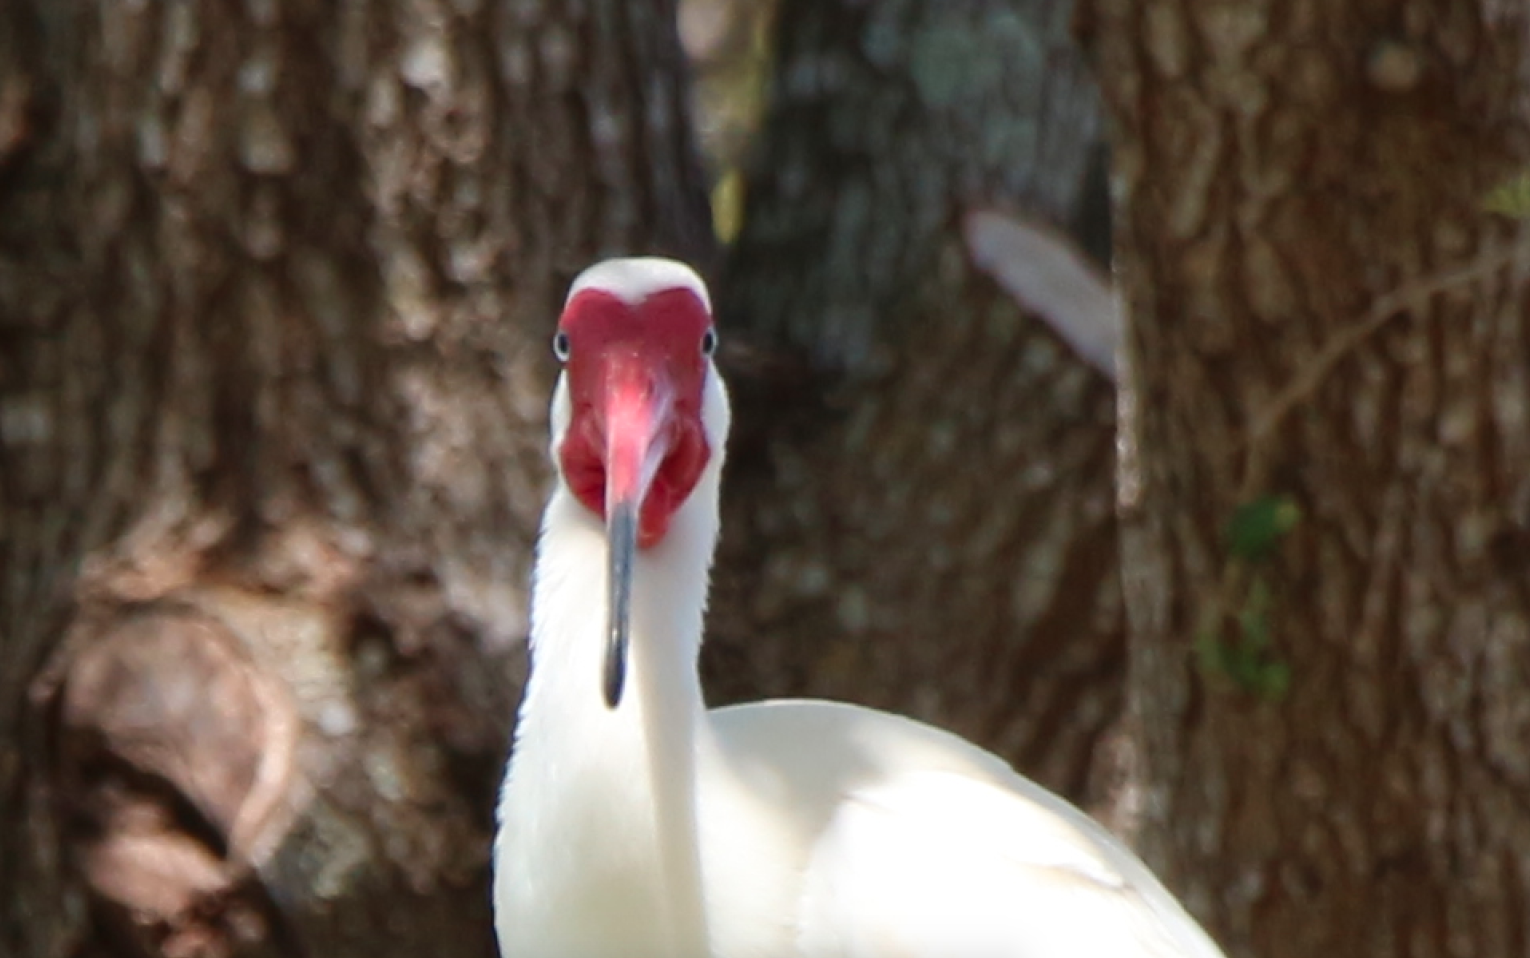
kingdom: Animalia
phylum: Chordata
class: Aves
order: Pelecaniformes
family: Threskiornithidae
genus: Eudocimus
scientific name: Eudocimus albus
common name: White ibis
